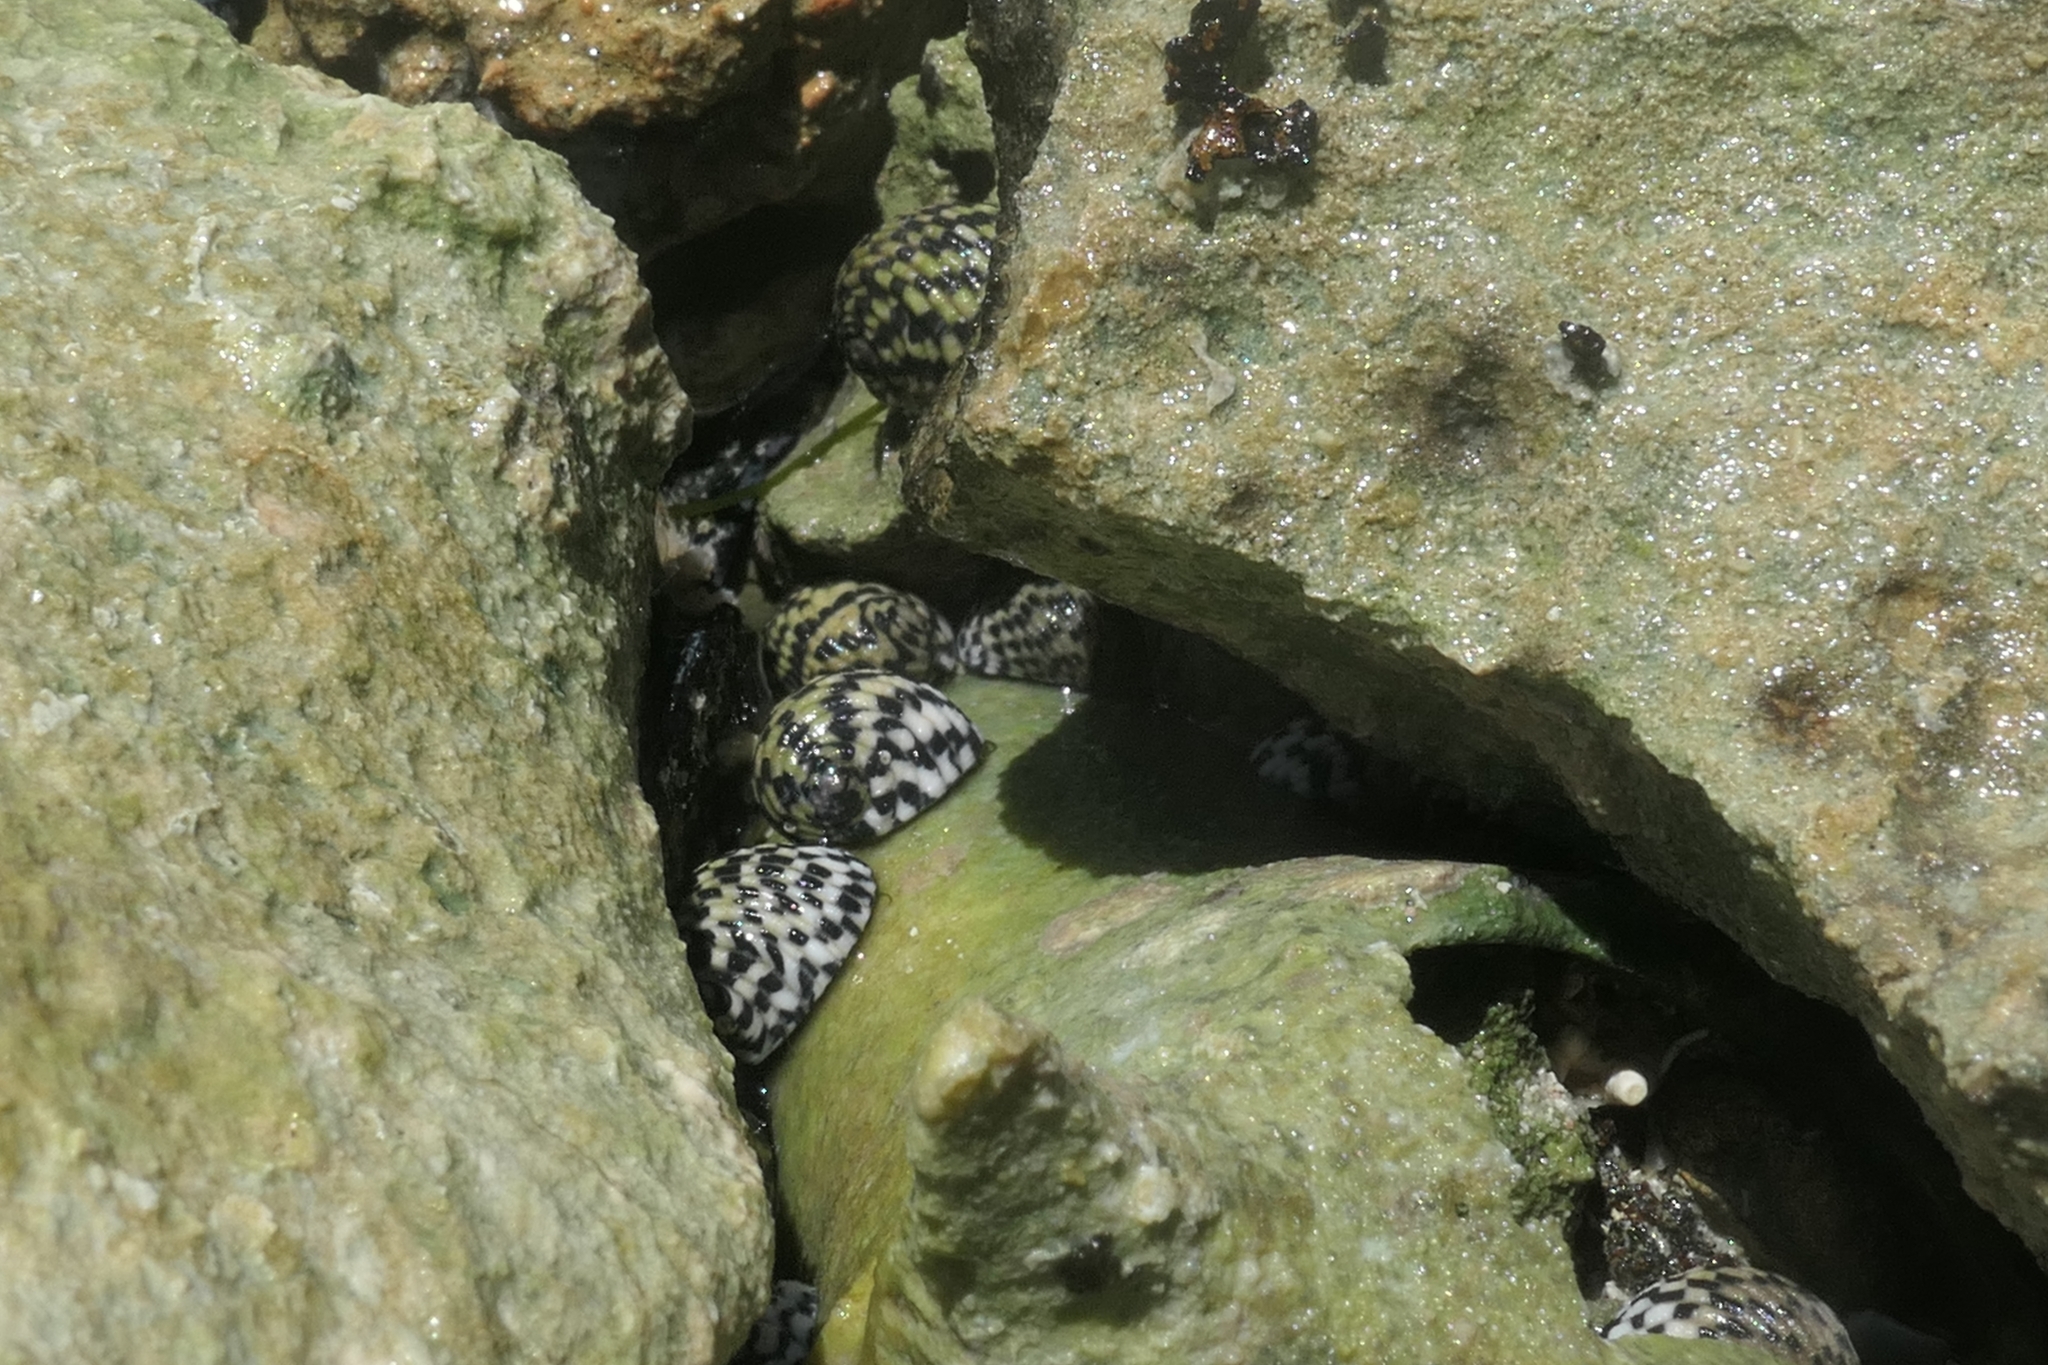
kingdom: Animalia
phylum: Mollusca
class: Gastropoda
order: Cycloneritida
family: Neritidae
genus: Nerita
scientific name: Nerita tessellata
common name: Checkered nerite
